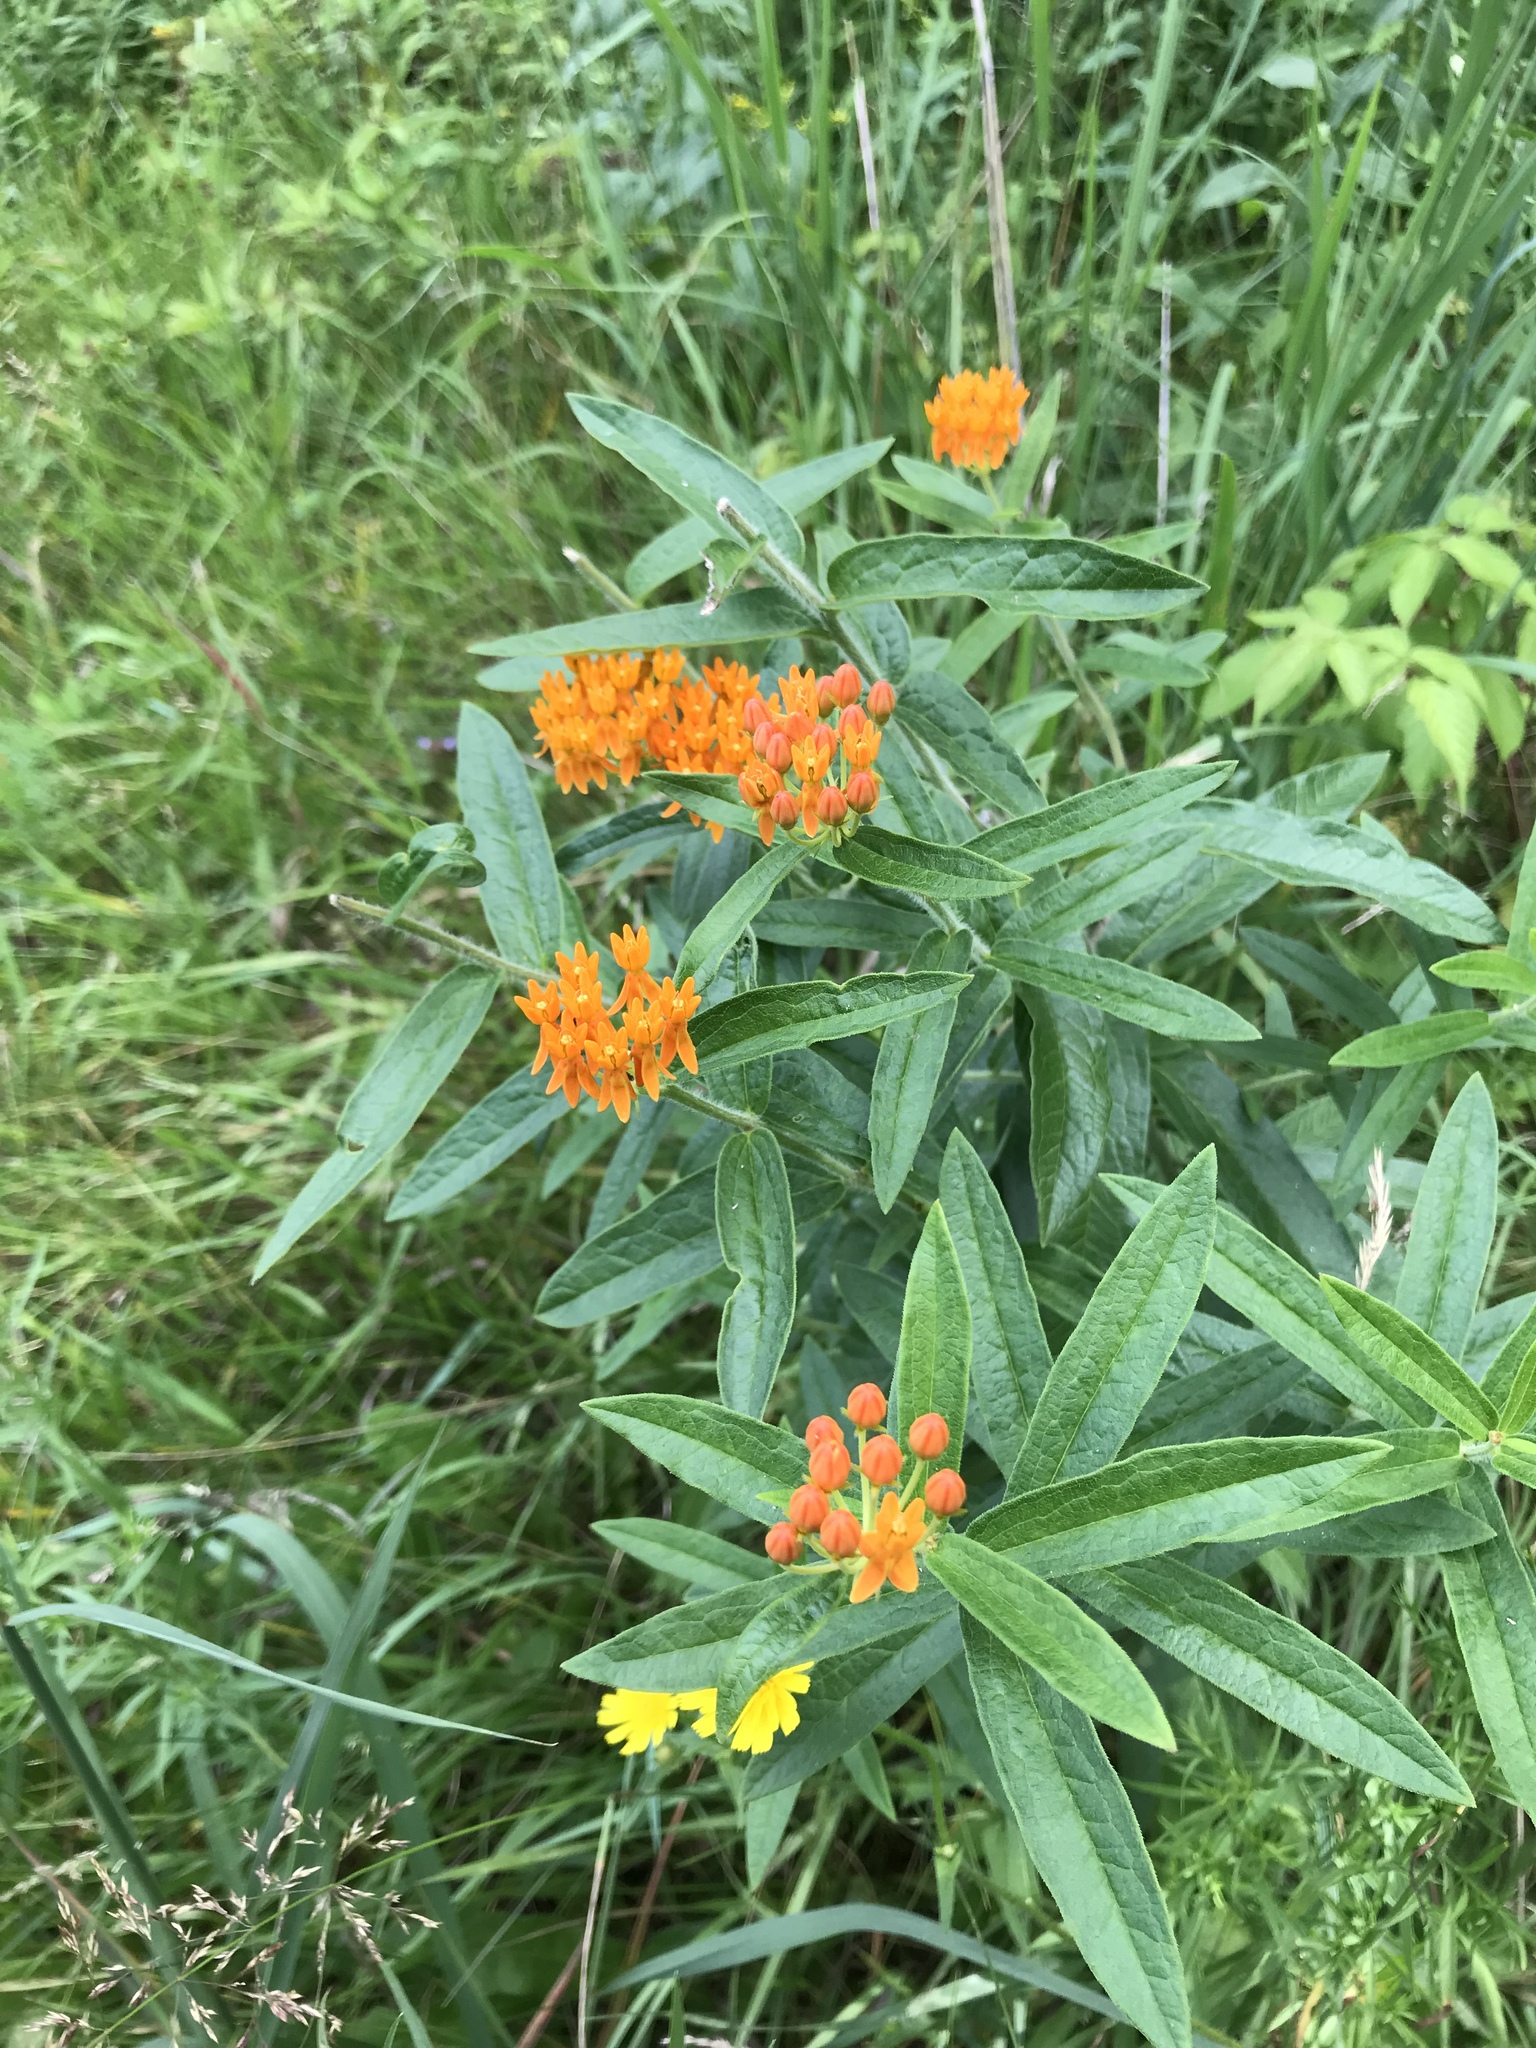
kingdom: Plantae
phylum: Tracheophyta
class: Magnoliopsida
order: Gentianales
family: Apocynaceae
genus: Asclepias
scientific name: Asclepias tuberosa
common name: Butterfly milkweed
